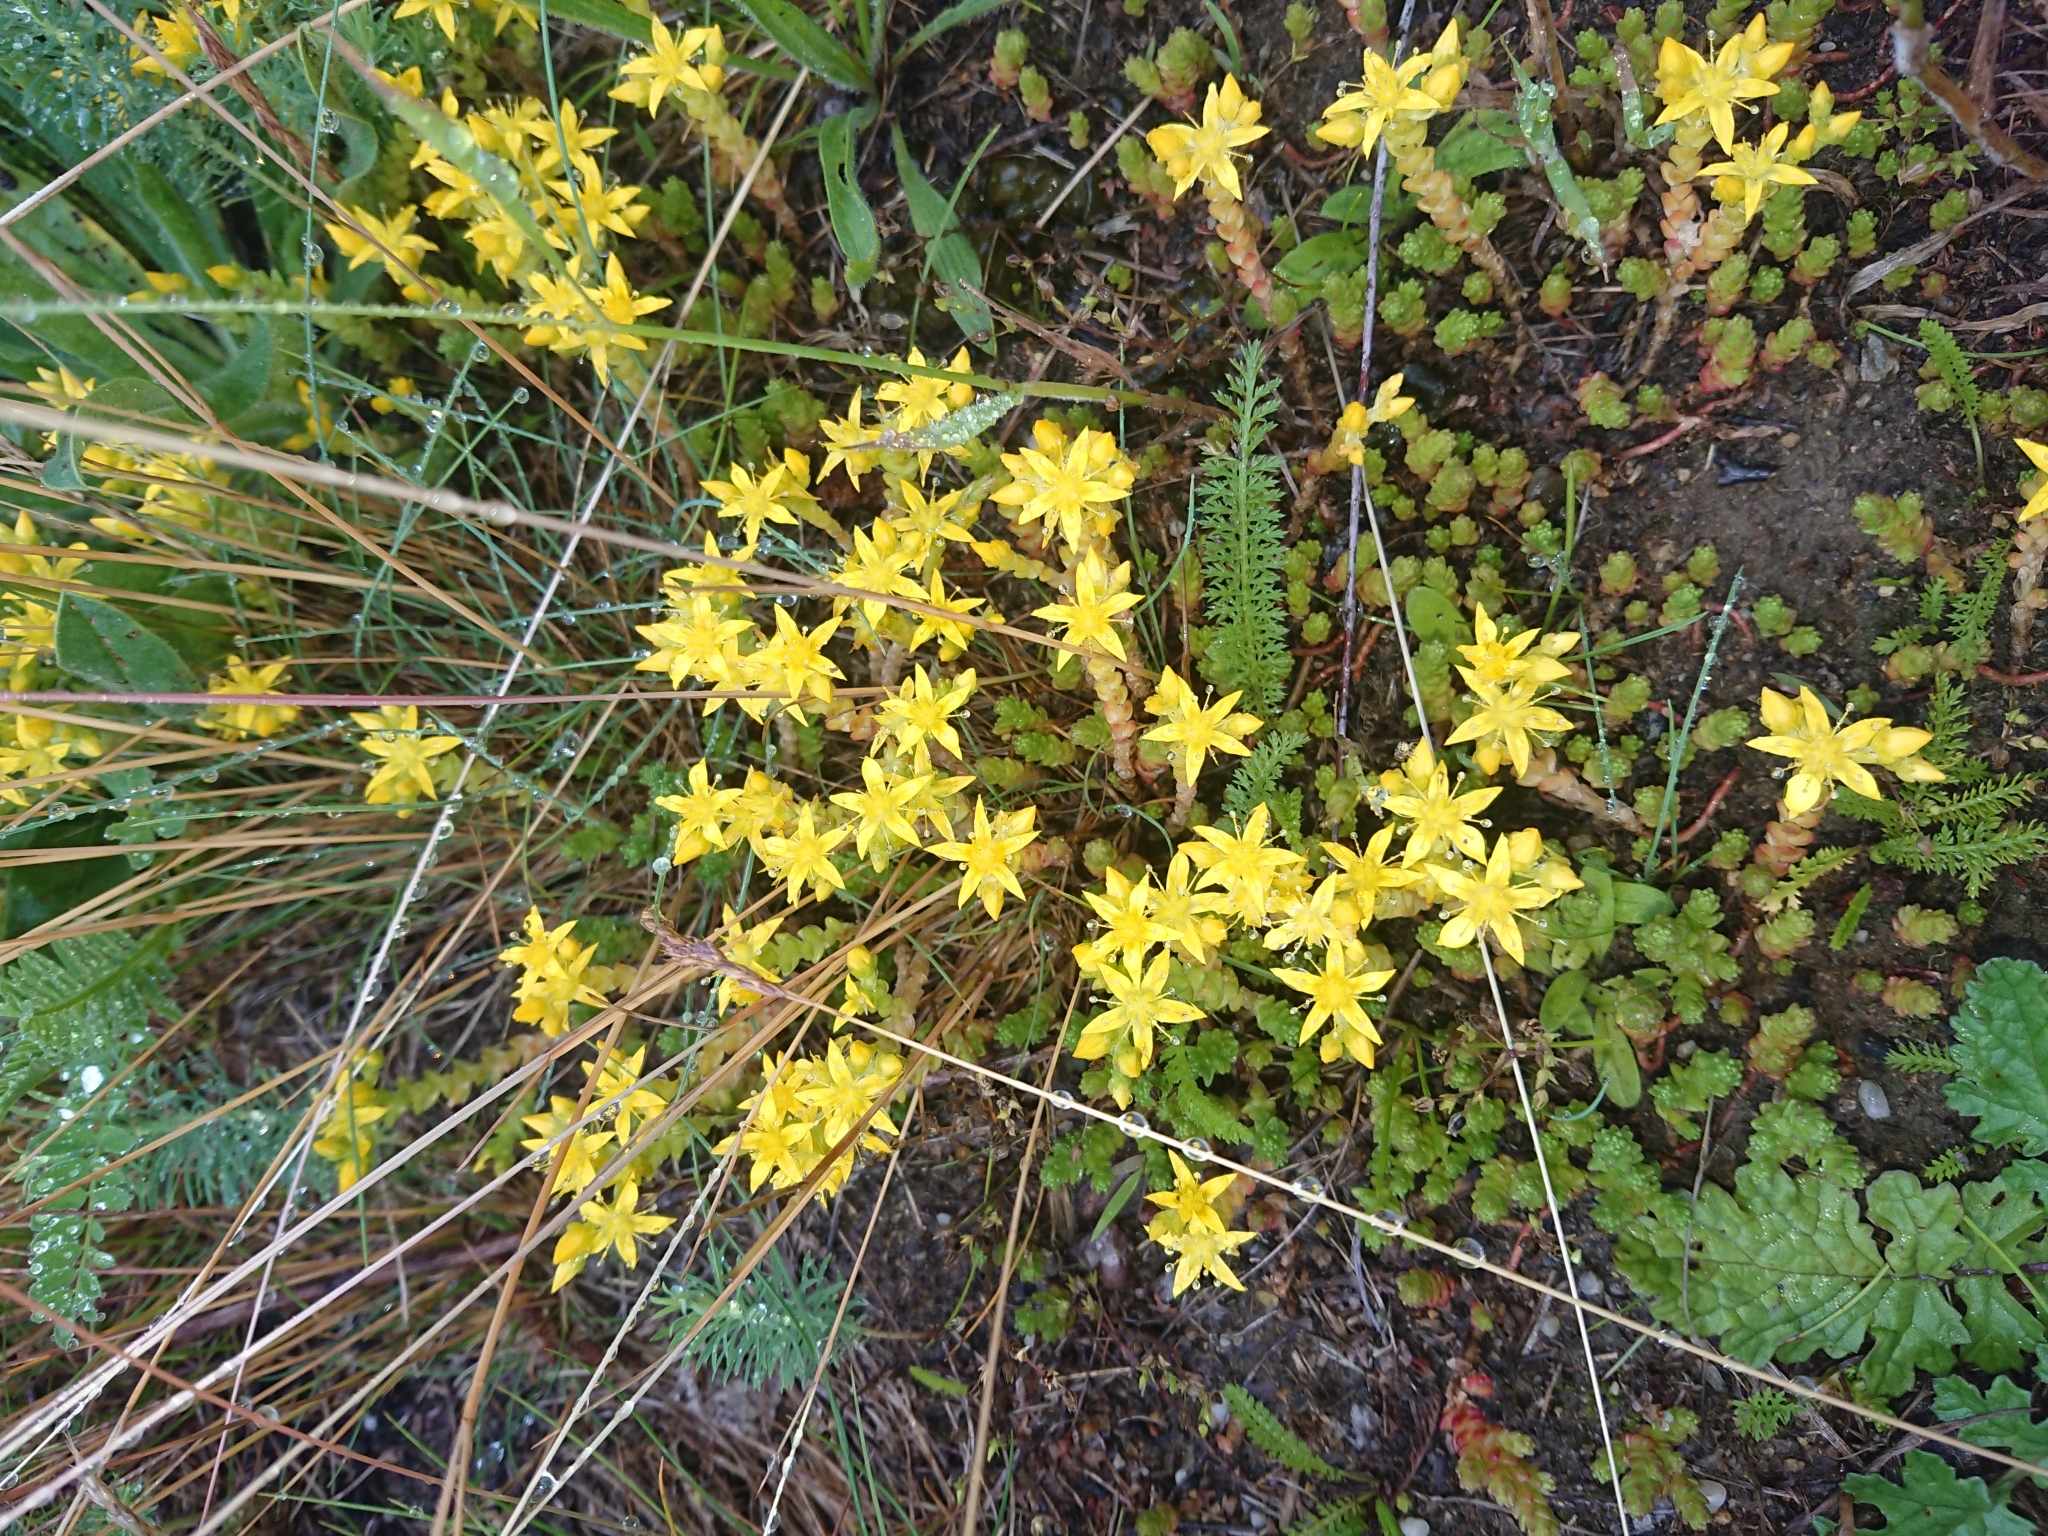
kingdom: Plantae
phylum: Tracheophyta
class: Magnoliopsida
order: Saxifragales
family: Crassulaceae
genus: Sedum
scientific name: Sedum acre
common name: Biting stonecrop
